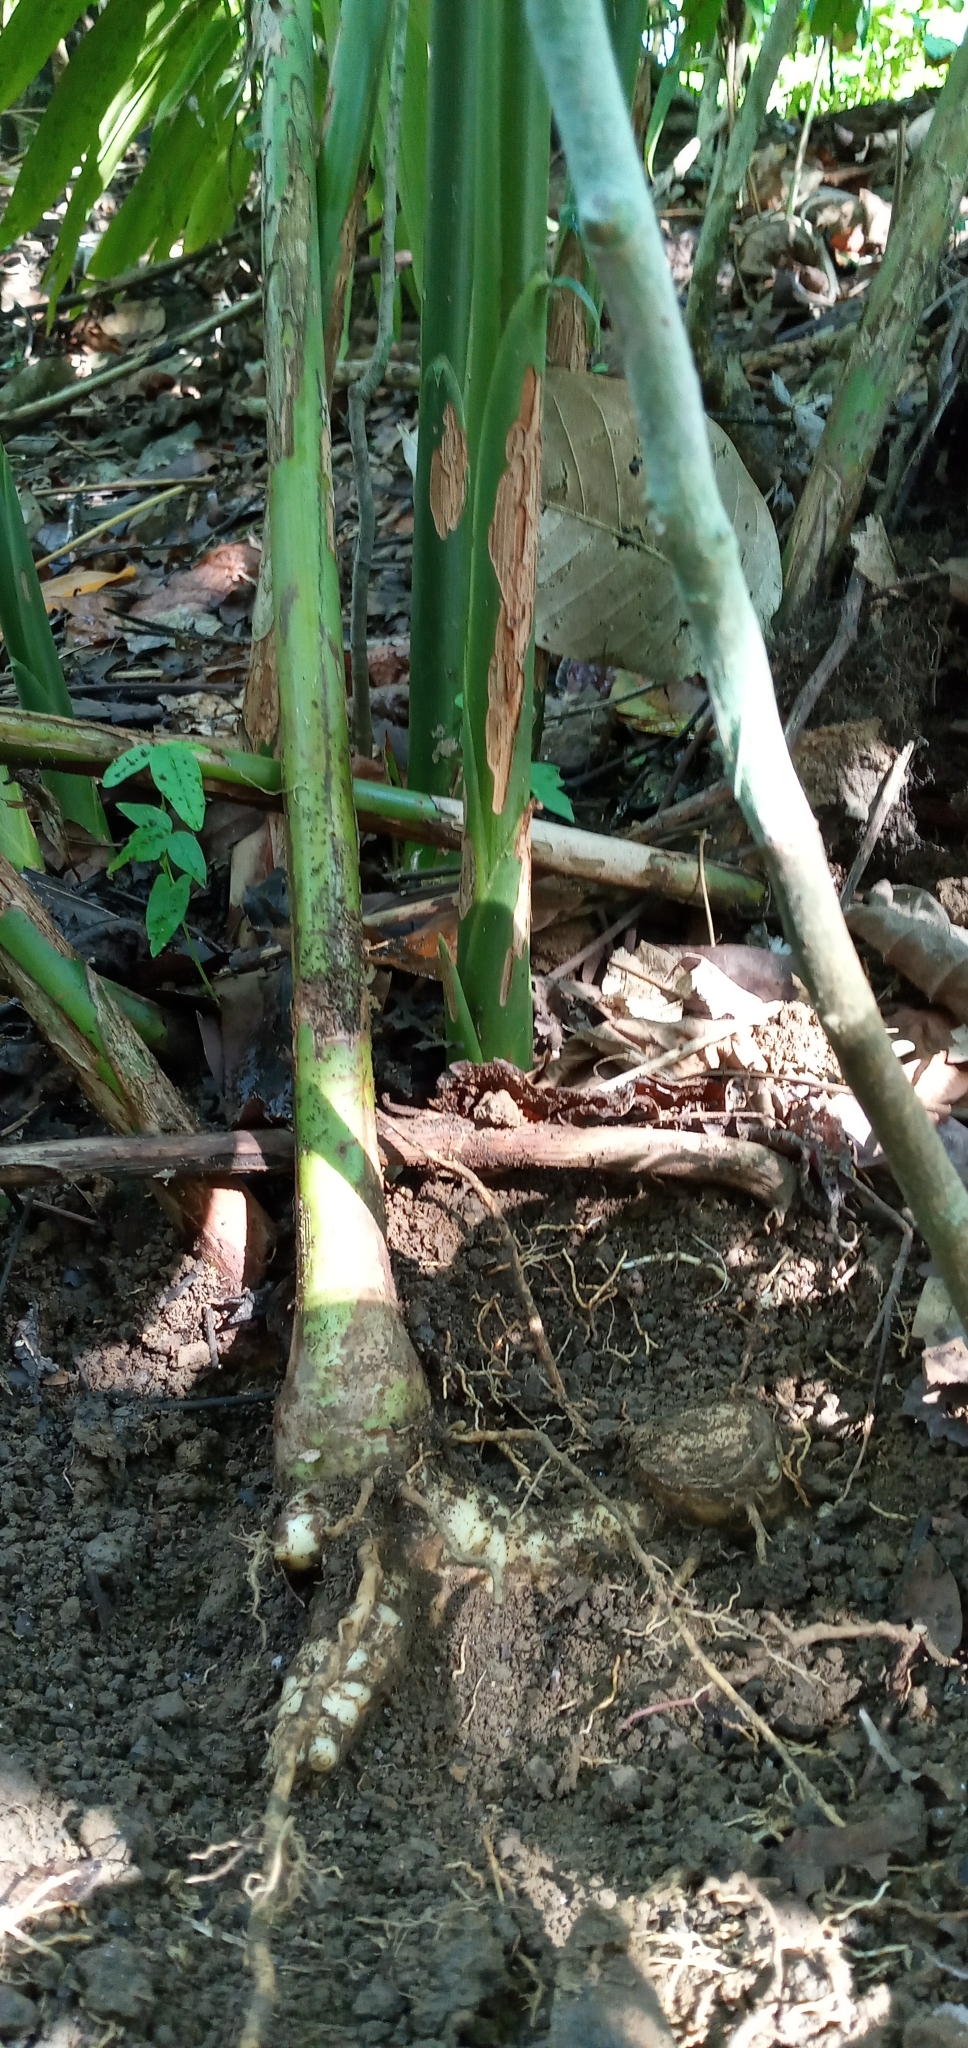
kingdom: Plantae
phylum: Tracheophyta
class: Liliopsida
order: Zingiberales
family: Zingiberaceae
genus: Alpinia
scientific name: Alpinia galanga
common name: Siamese-ginger
